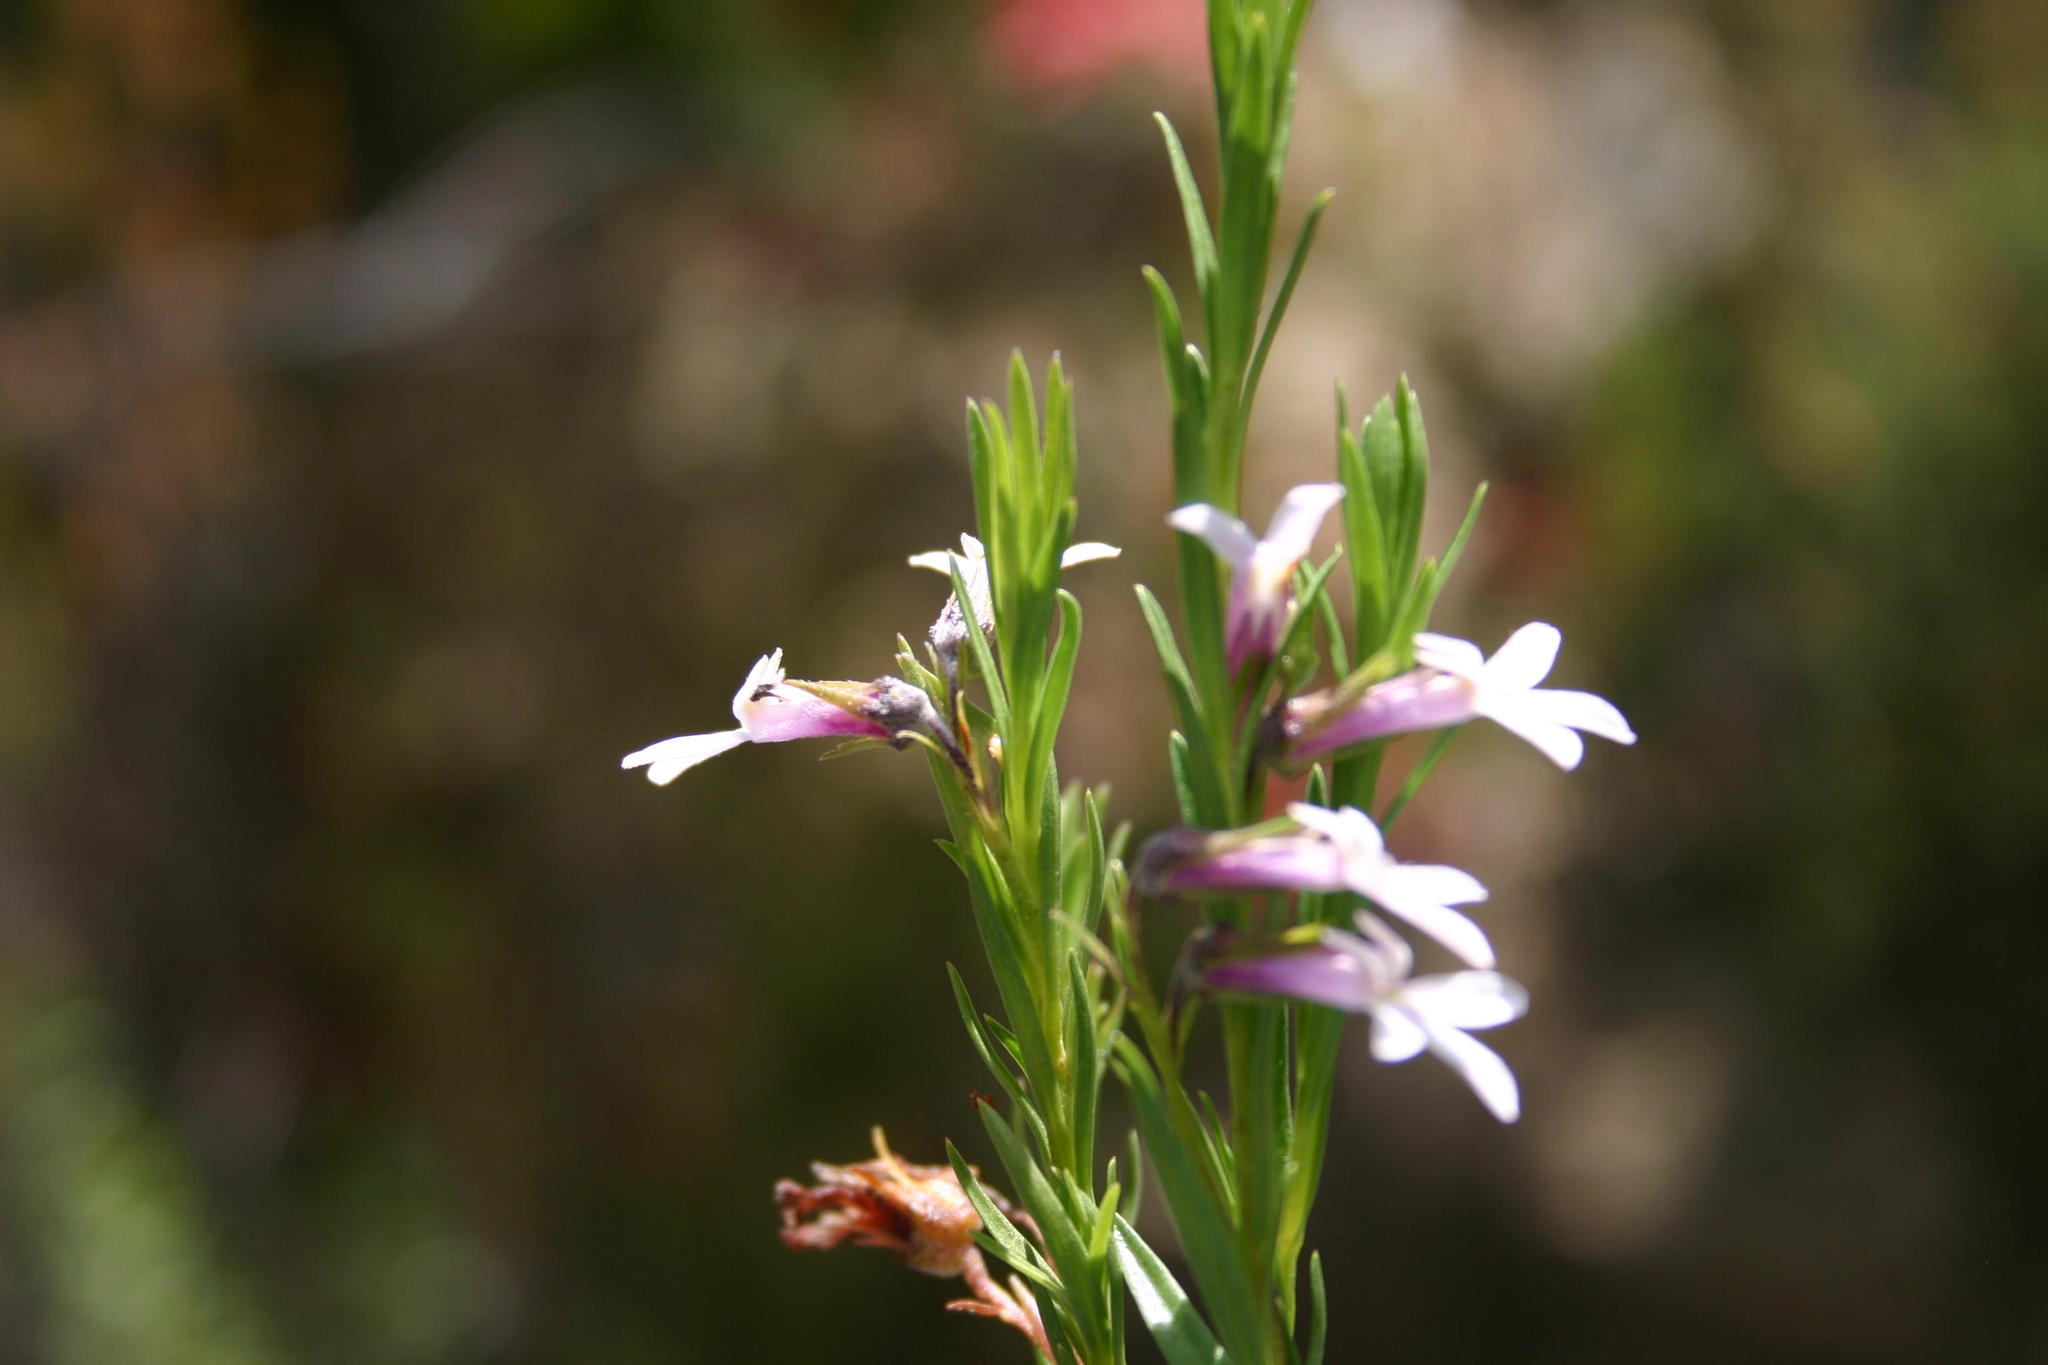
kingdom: Plantae
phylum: Tracheophyta
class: Magnoliopsida
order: Asterales
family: Campanulaceae
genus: Lobelia
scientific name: Lobelia pinifolia
